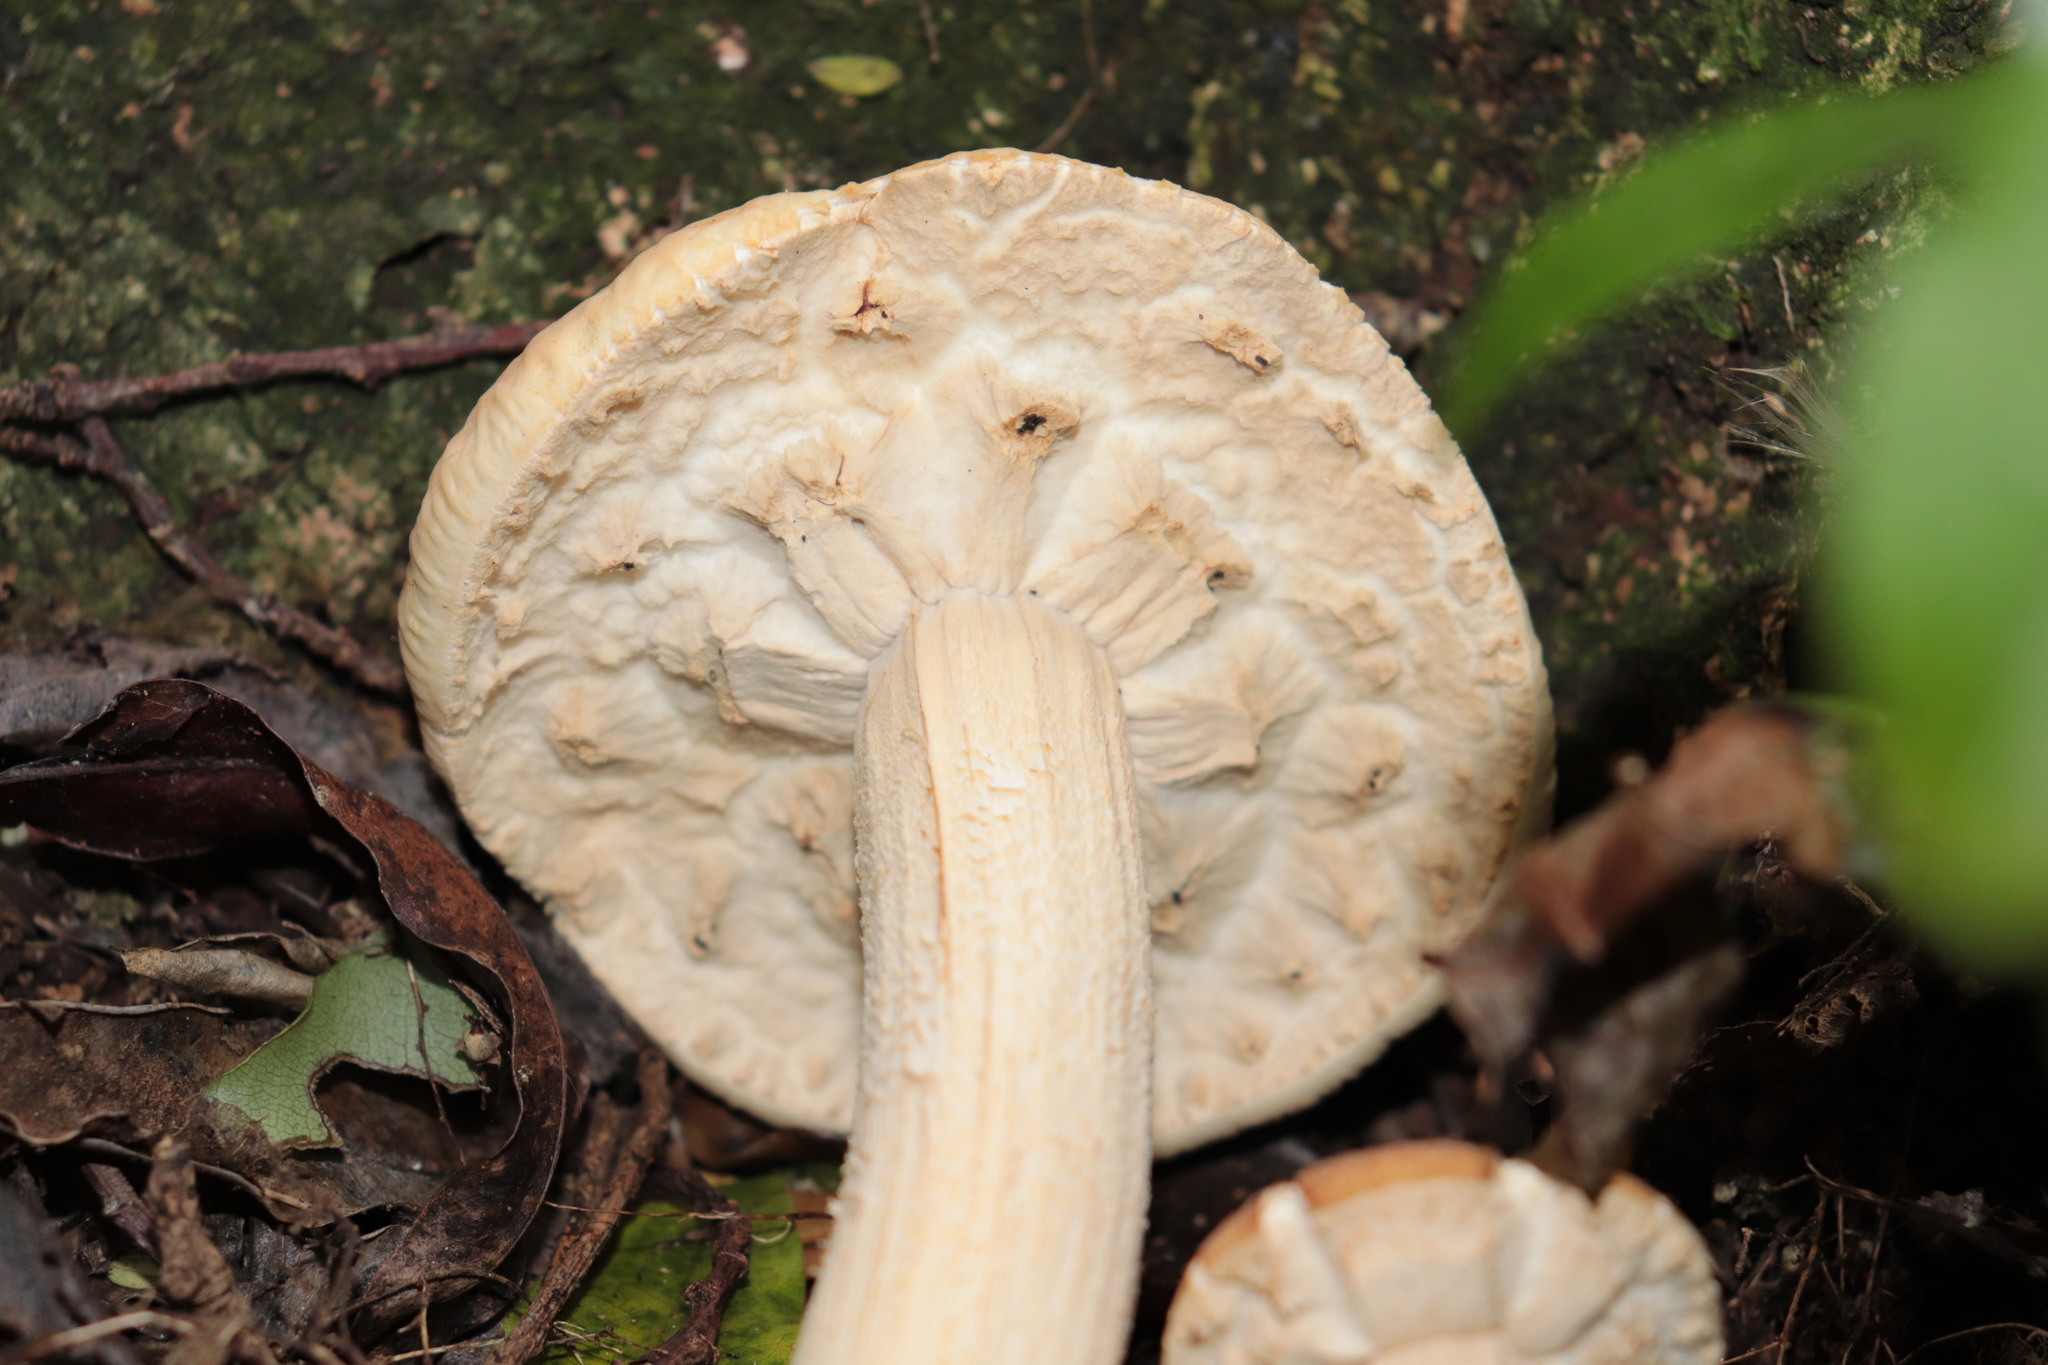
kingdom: Fungi
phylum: Basidiomycota
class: Agaricomycetes
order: Agaricales
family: Tubariaceae
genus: Cyclocybe
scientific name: Cyclocybe parasitica
